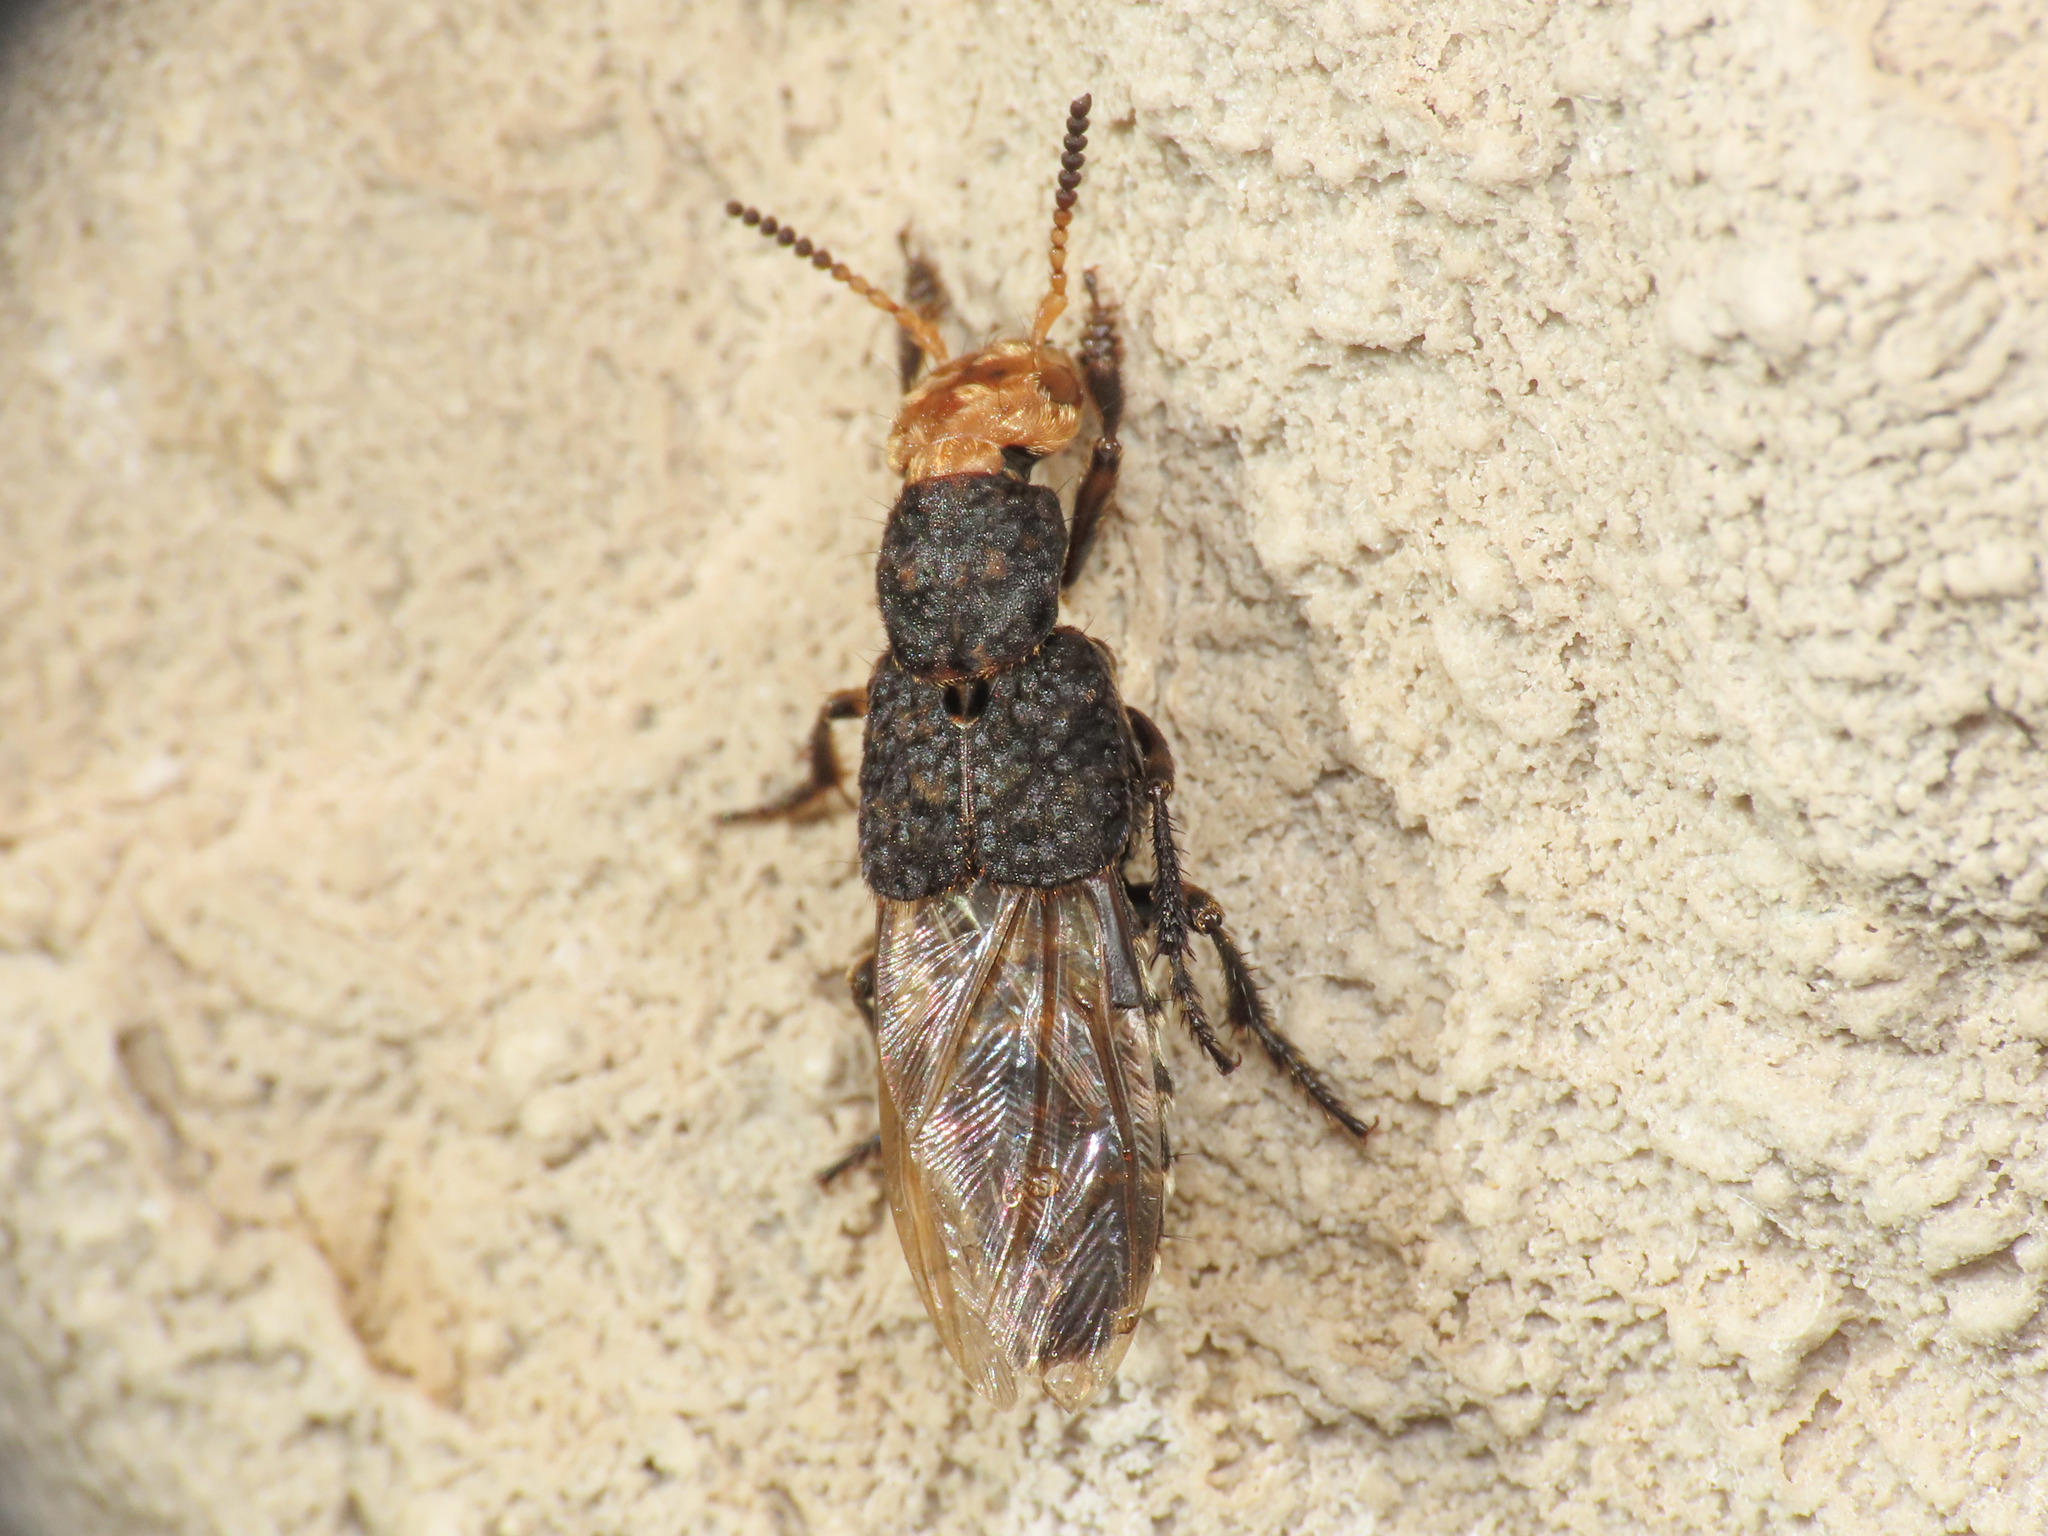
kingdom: Animalia
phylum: Arthropoda
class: Insecta
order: Coleoptera
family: Staphylinidae
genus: Dinothenarus
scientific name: Dinothenarus flavocephalus
